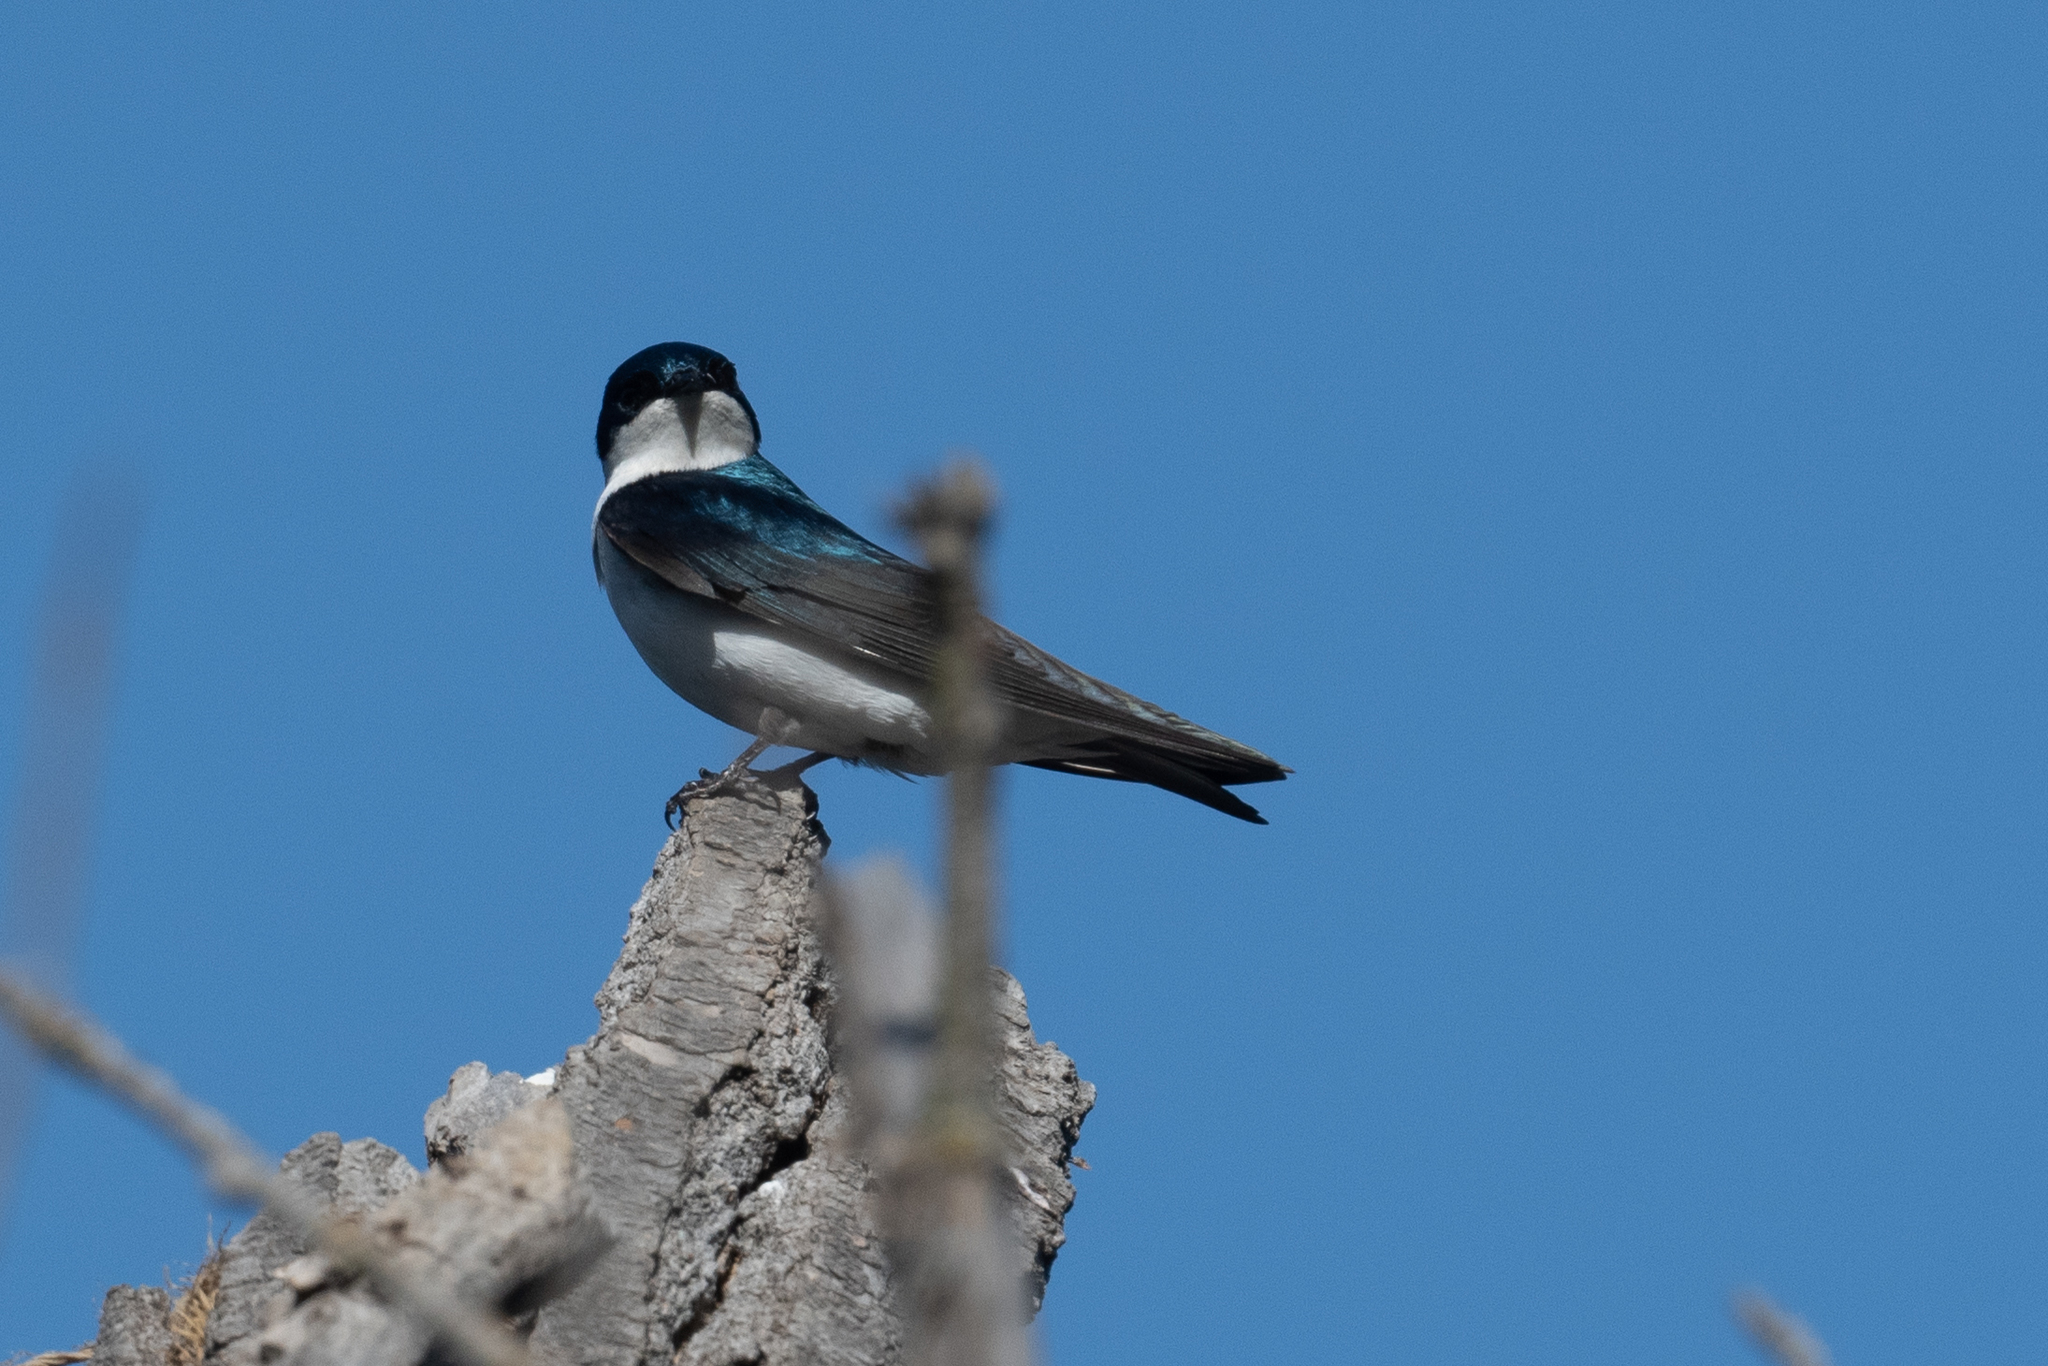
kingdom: Animalia
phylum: Chordata
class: Aves
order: Passeriformes
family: Hirundinidae
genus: Tachycineta
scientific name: Tachycineta bicolor
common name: Tree swallow
